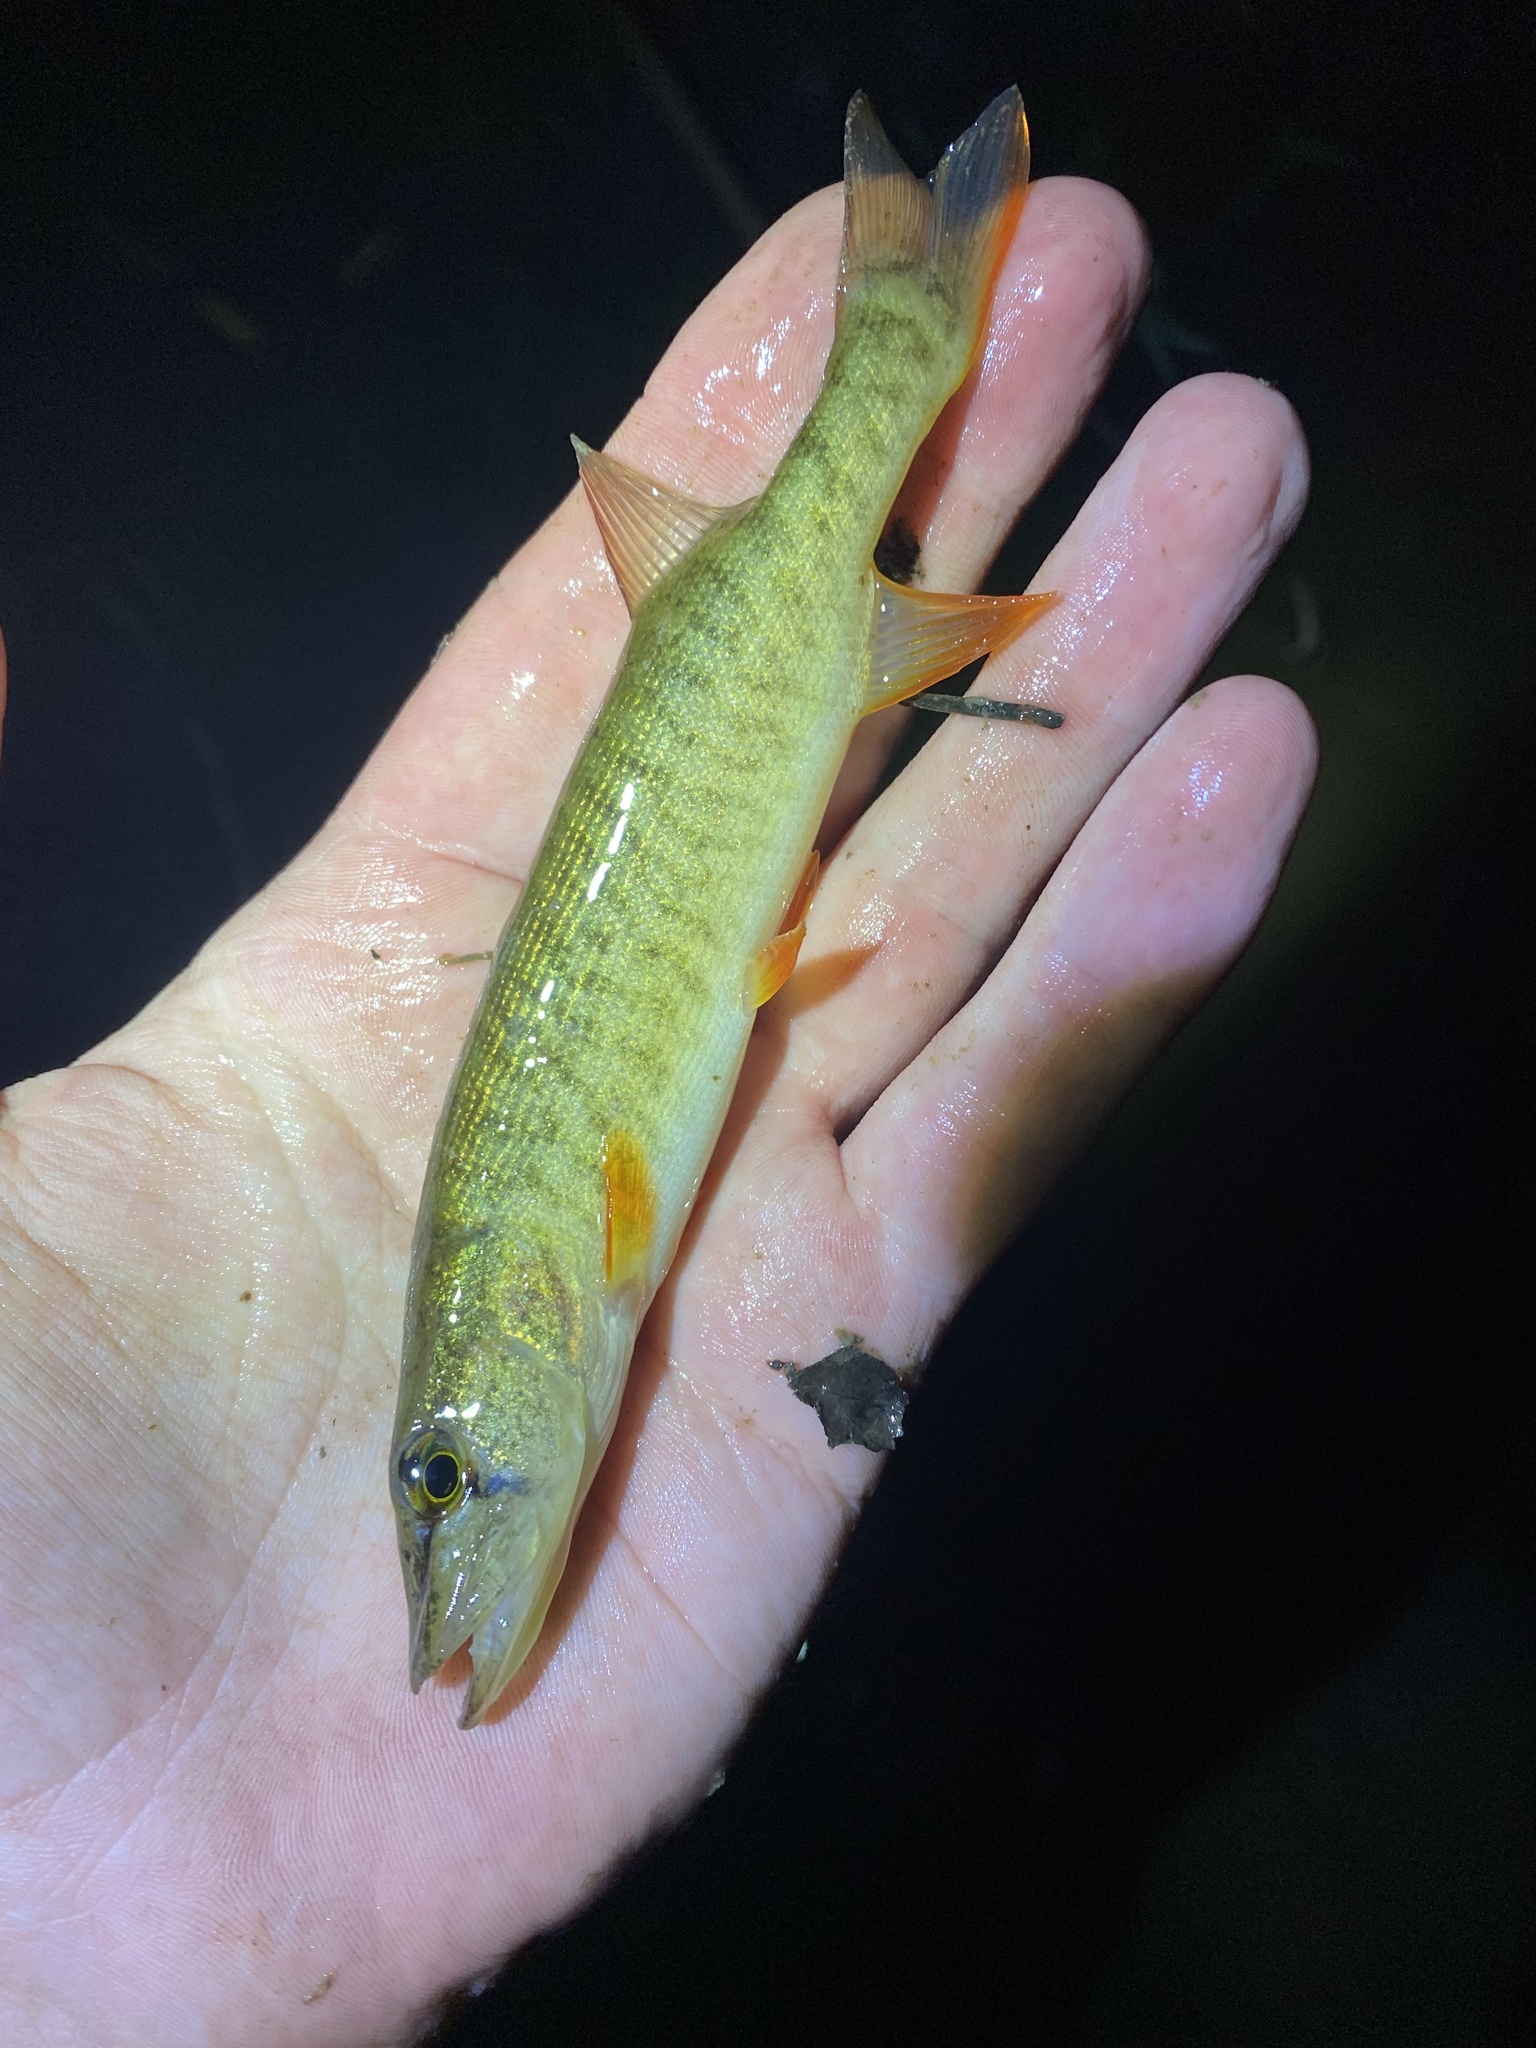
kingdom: Animalia
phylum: Chordata
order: Esociformes
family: Esocidae
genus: Esox
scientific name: Esox americanus
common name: Redfin pickerel
